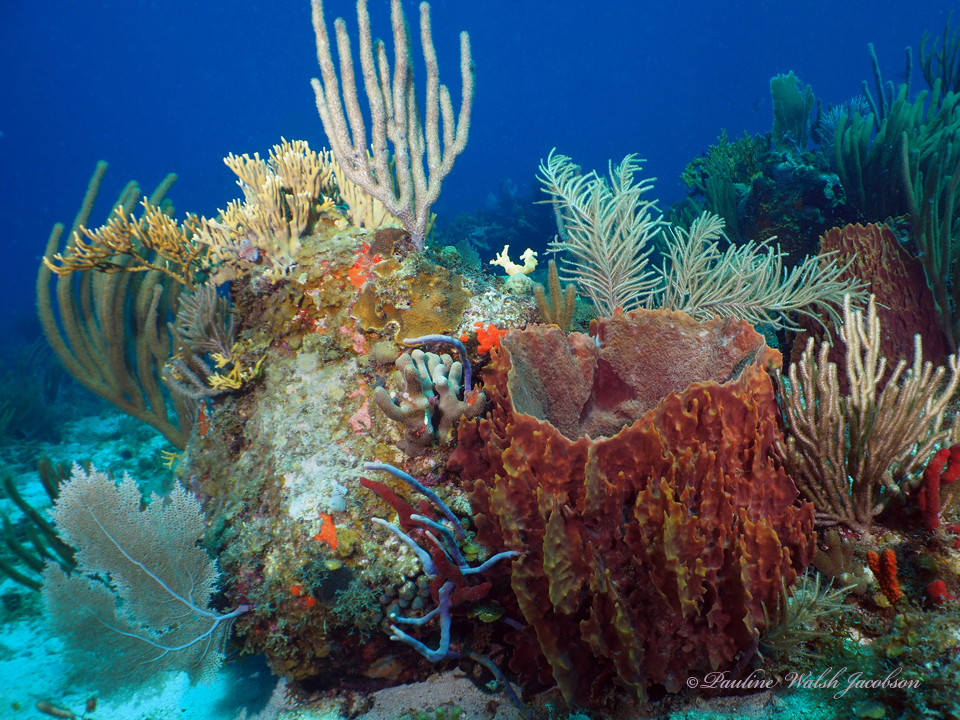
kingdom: Animalia
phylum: Porifera
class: Demospongiae
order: Haplosclerida
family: Petrosiidae
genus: Xestospongia
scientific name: Xestospongia muta
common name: Giant barrel sponge
